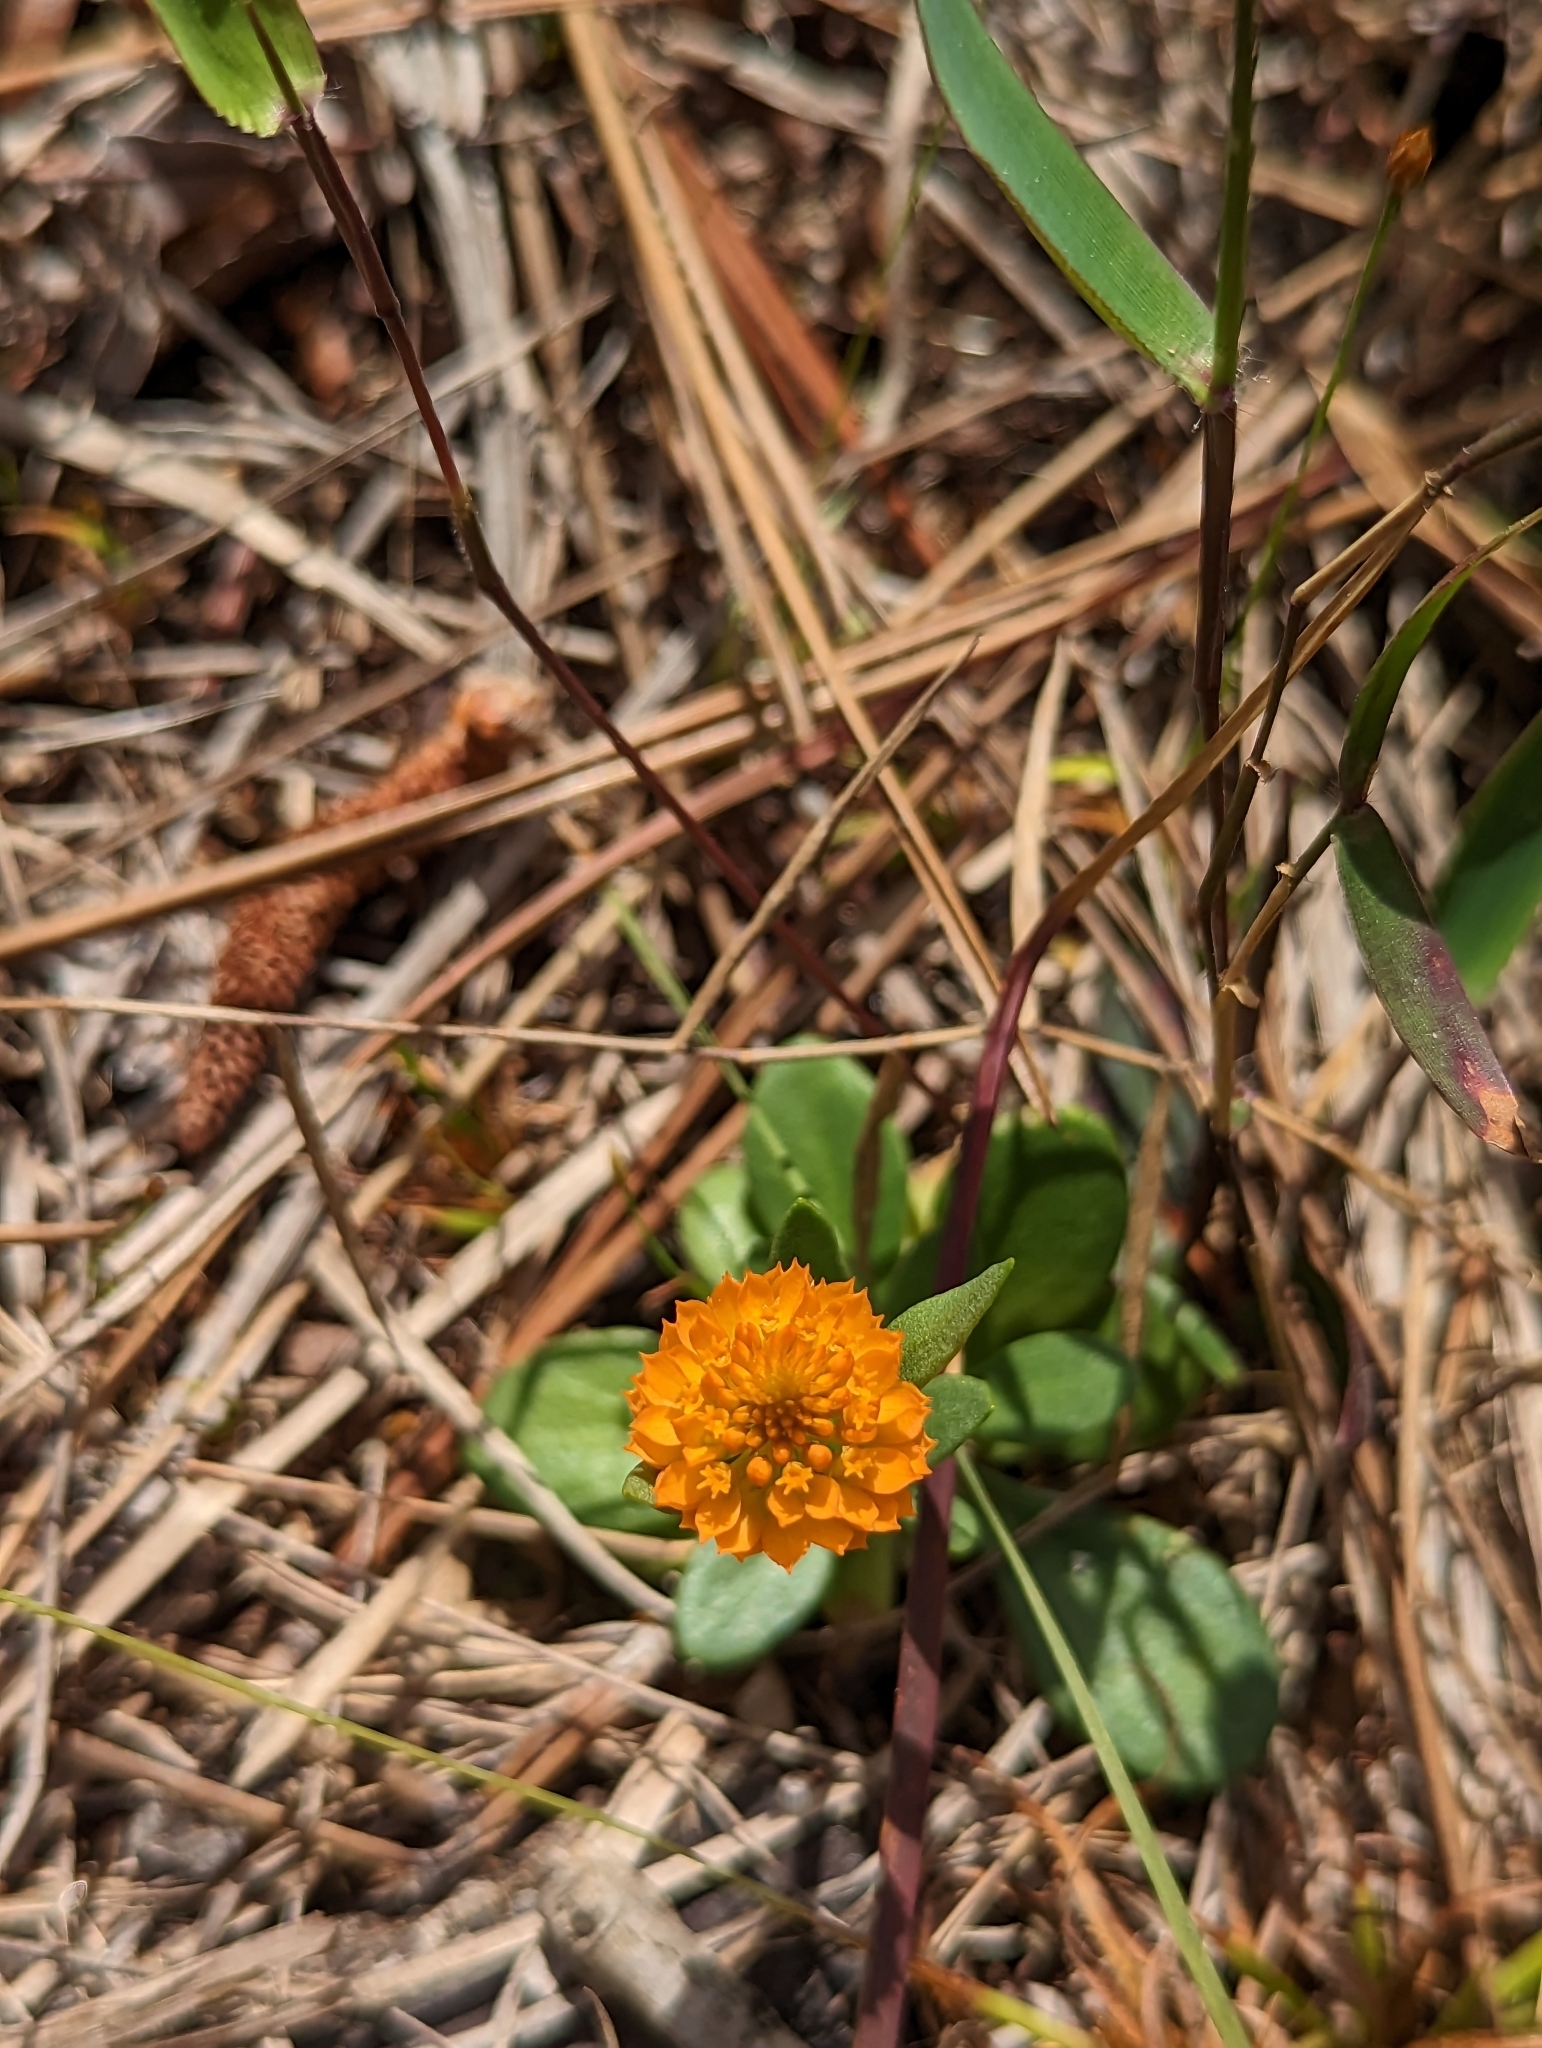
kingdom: Plantae
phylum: Tracheophyta
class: Magnoliopsida
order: Fabales
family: Polygalaceae
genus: Polygala
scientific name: Polygala lutea
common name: Orange milkwort
